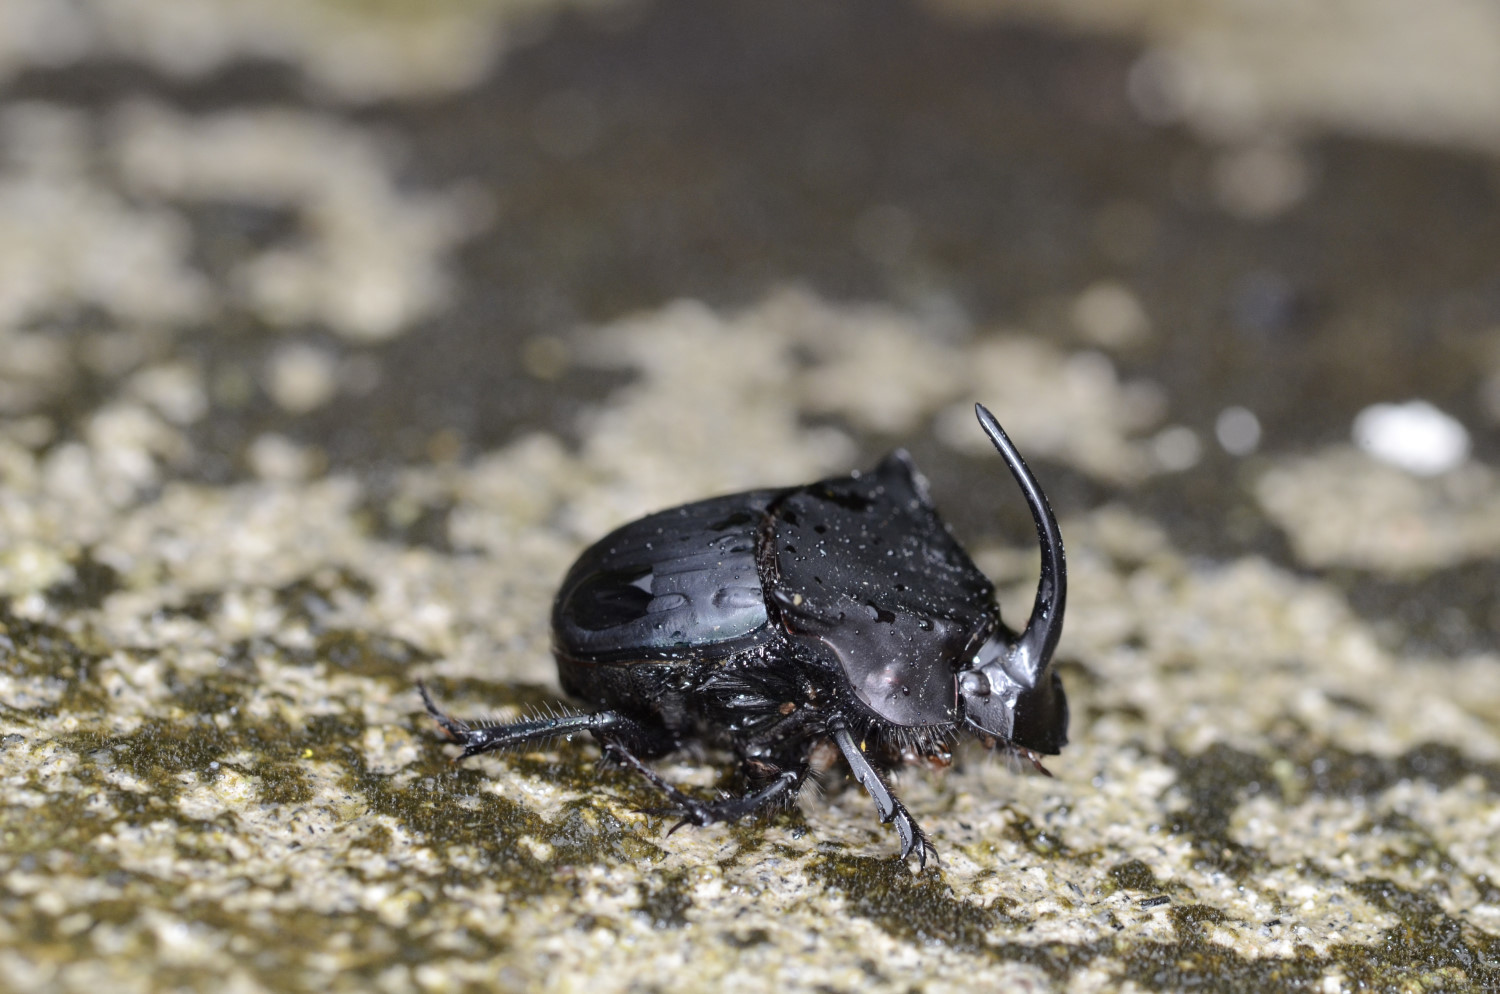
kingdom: Animalia
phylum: Arthropoda
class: Insecta
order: Coleoptera
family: Scarabaeidae
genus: Phanaeus
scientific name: Phanaeus pyrois
